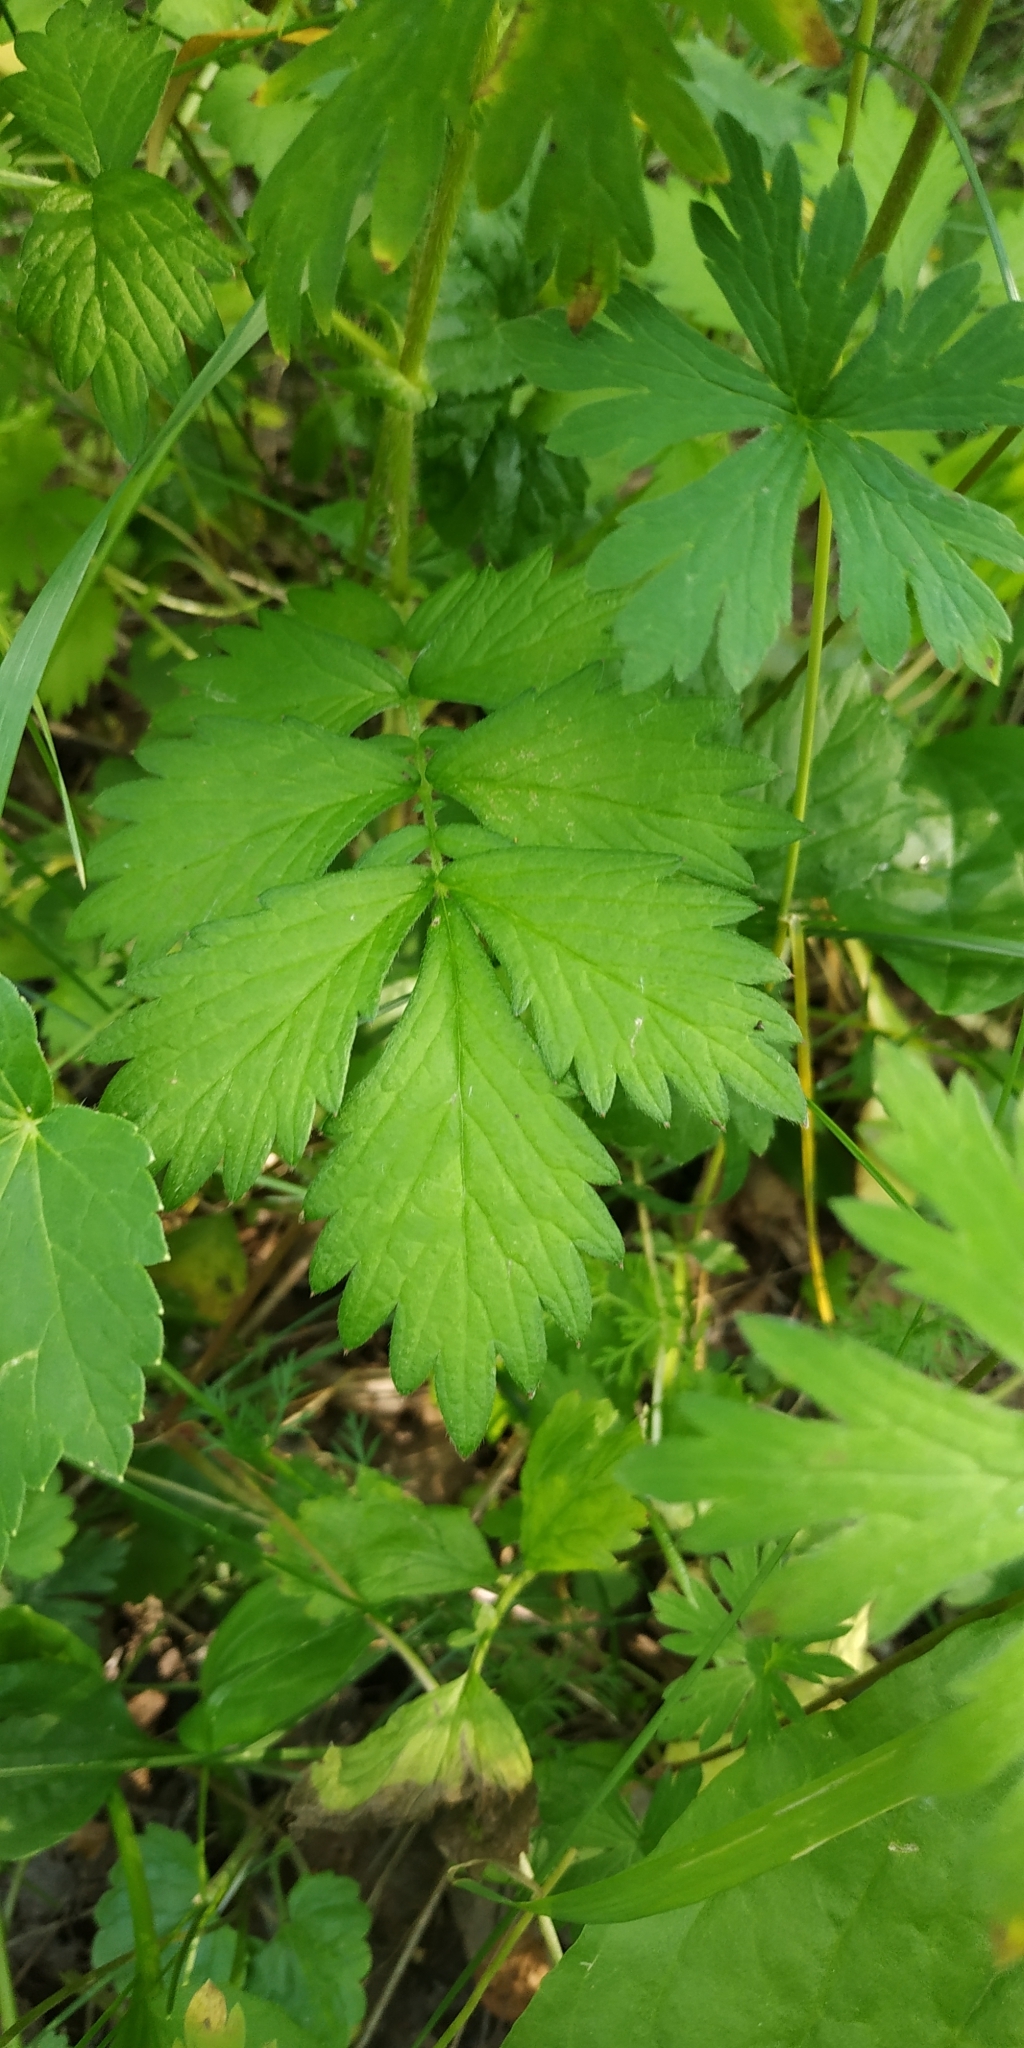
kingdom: Plantae
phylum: Tracheophyta
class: Magnoliopsida
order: Rosales
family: Rosaceae
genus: Agrimonia
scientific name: Agrimonia pilosa
